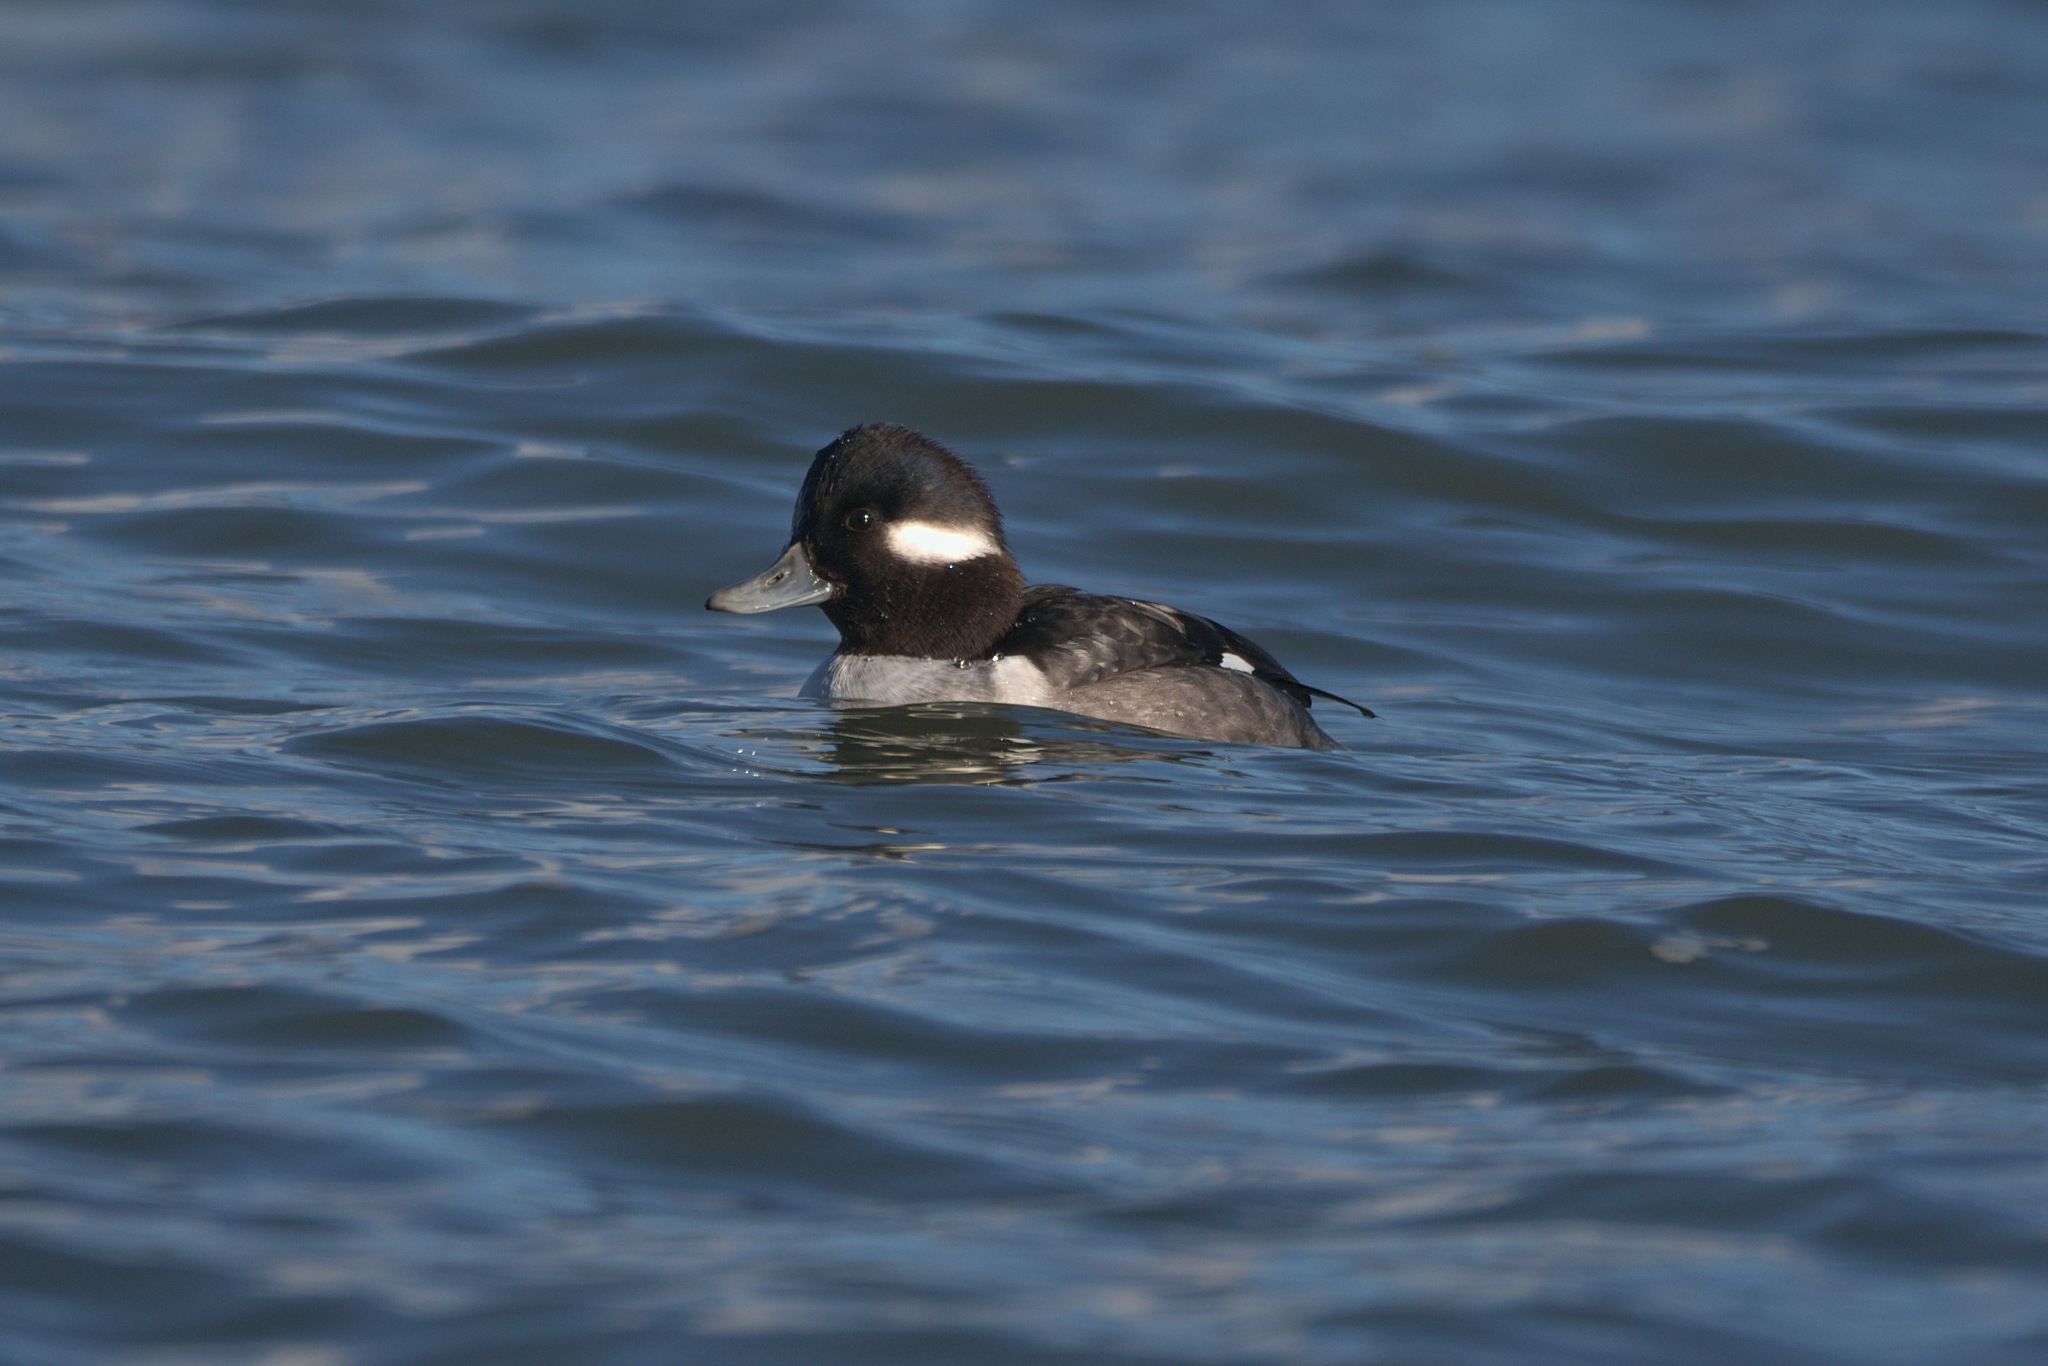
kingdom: Animalia
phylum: Chordata
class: Aves
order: Anseriformes
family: Anatidae
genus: Bucephala
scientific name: Bucephala albeola
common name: Bufflehead
